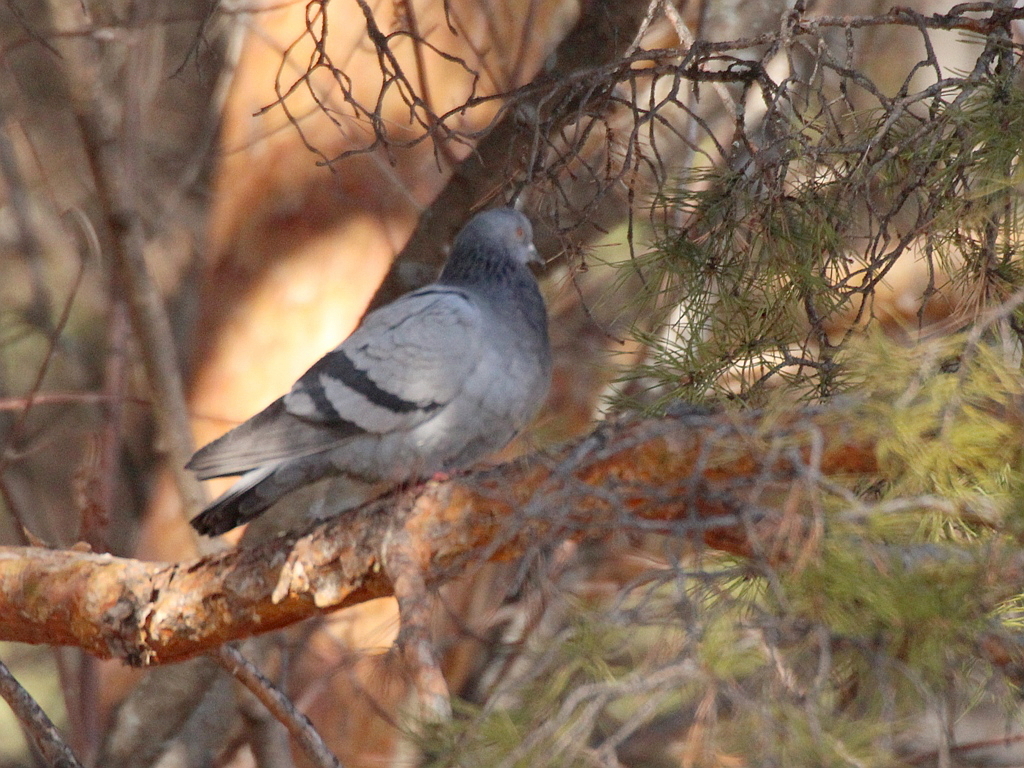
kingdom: Animalia
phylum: Chordata
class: Aves
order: Columbiformes
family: Columbidae
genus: Columba
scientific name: Columba livia
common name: Rock pigeon
